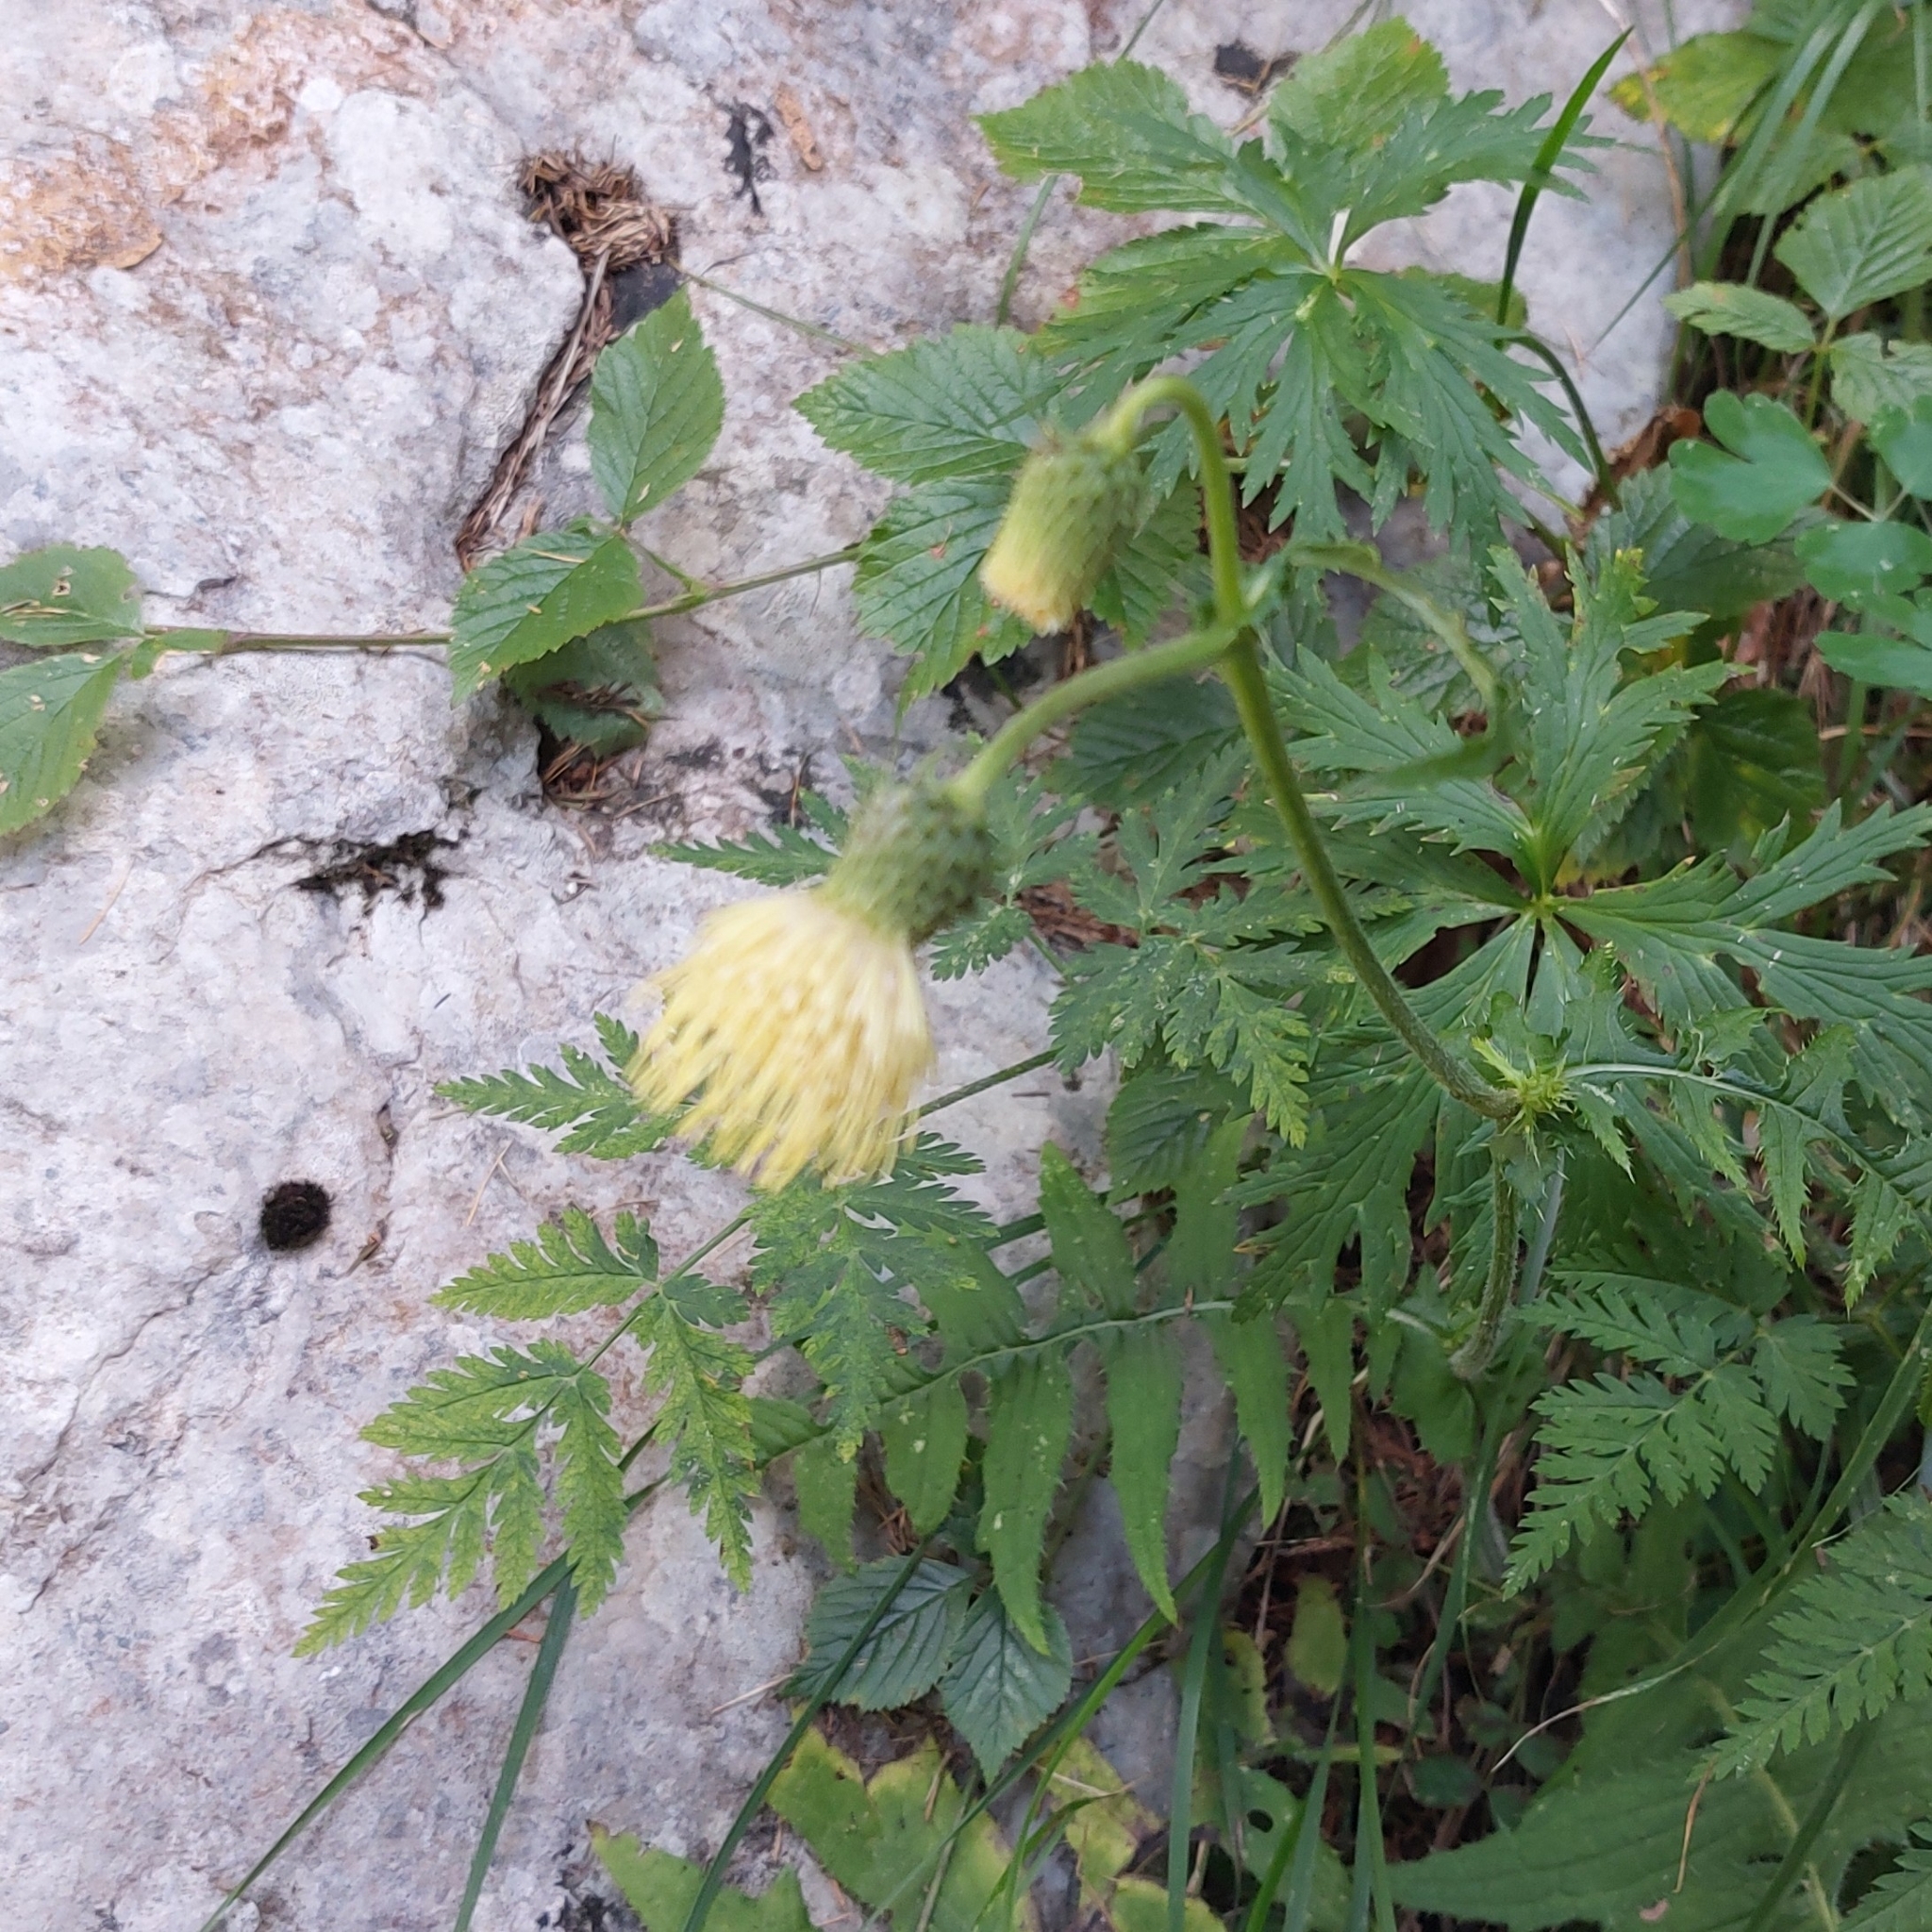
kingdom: Plantae
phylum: Tracheophyta
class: Magnoliopsida
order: Asterales
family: Asteraceae
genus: Cirsium
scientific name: Cirsium erisithales
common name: Yellow thistle
